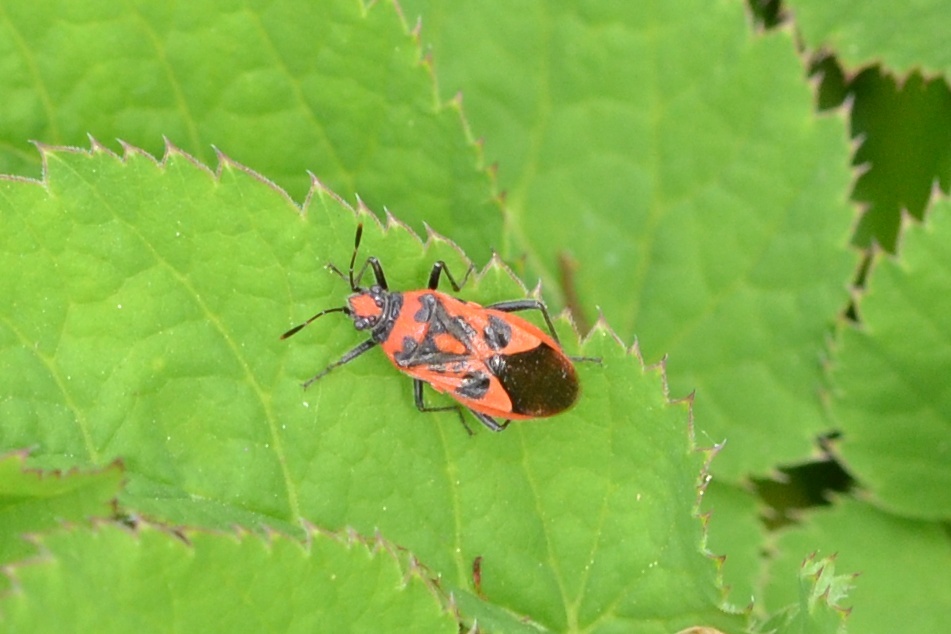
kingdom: Animalia
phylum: Arthropoda
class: Insecta
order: Hemiptera
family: Rhopalidae
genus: Corizus
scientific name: Corizus hyoscyami
